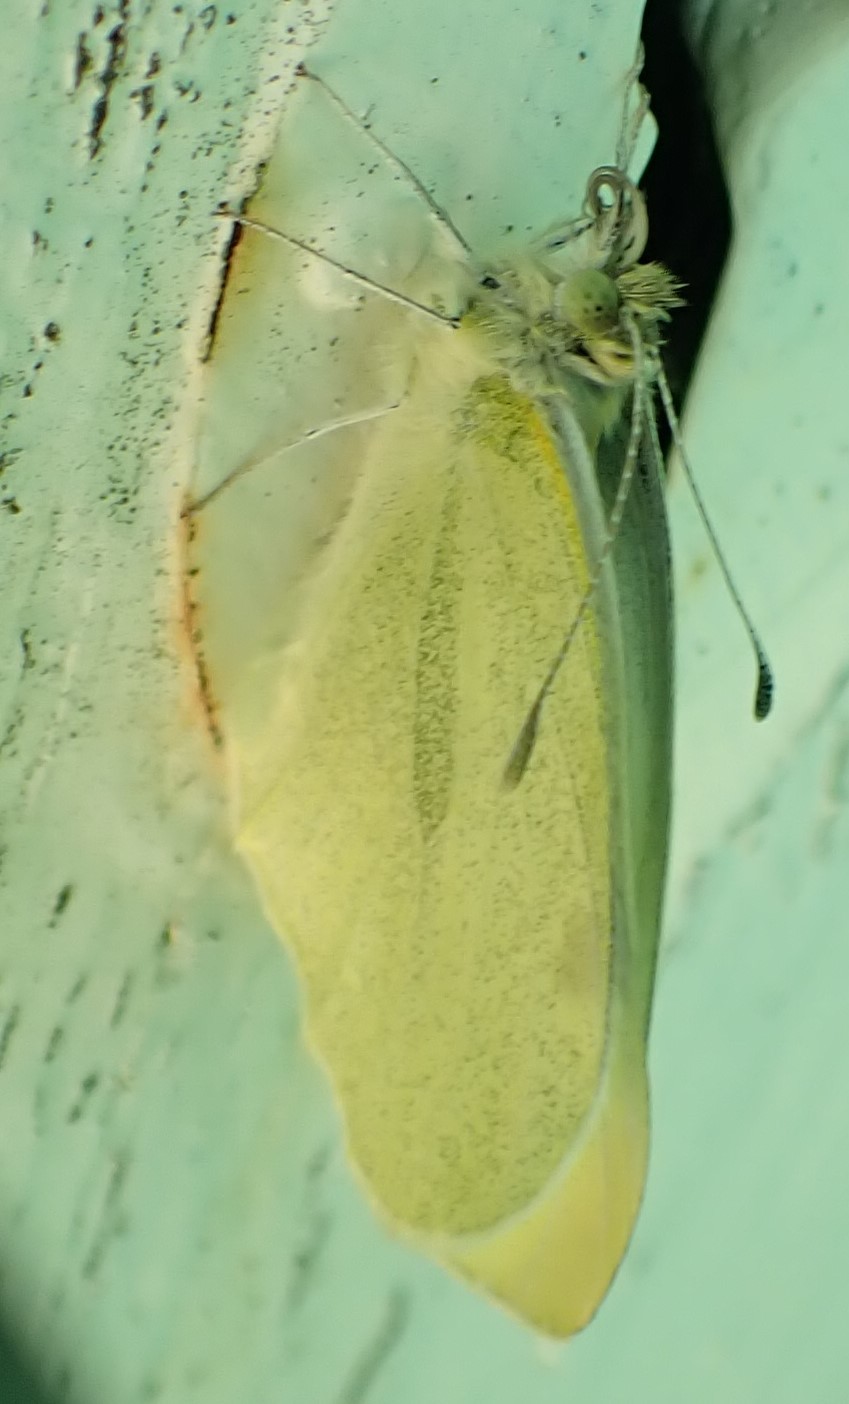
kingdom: Animalia
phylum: Arthropoda
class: Insecta
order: Lepidoptera
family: Pieridae
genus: Pieris
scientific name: Pieris rapae
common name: Small white
